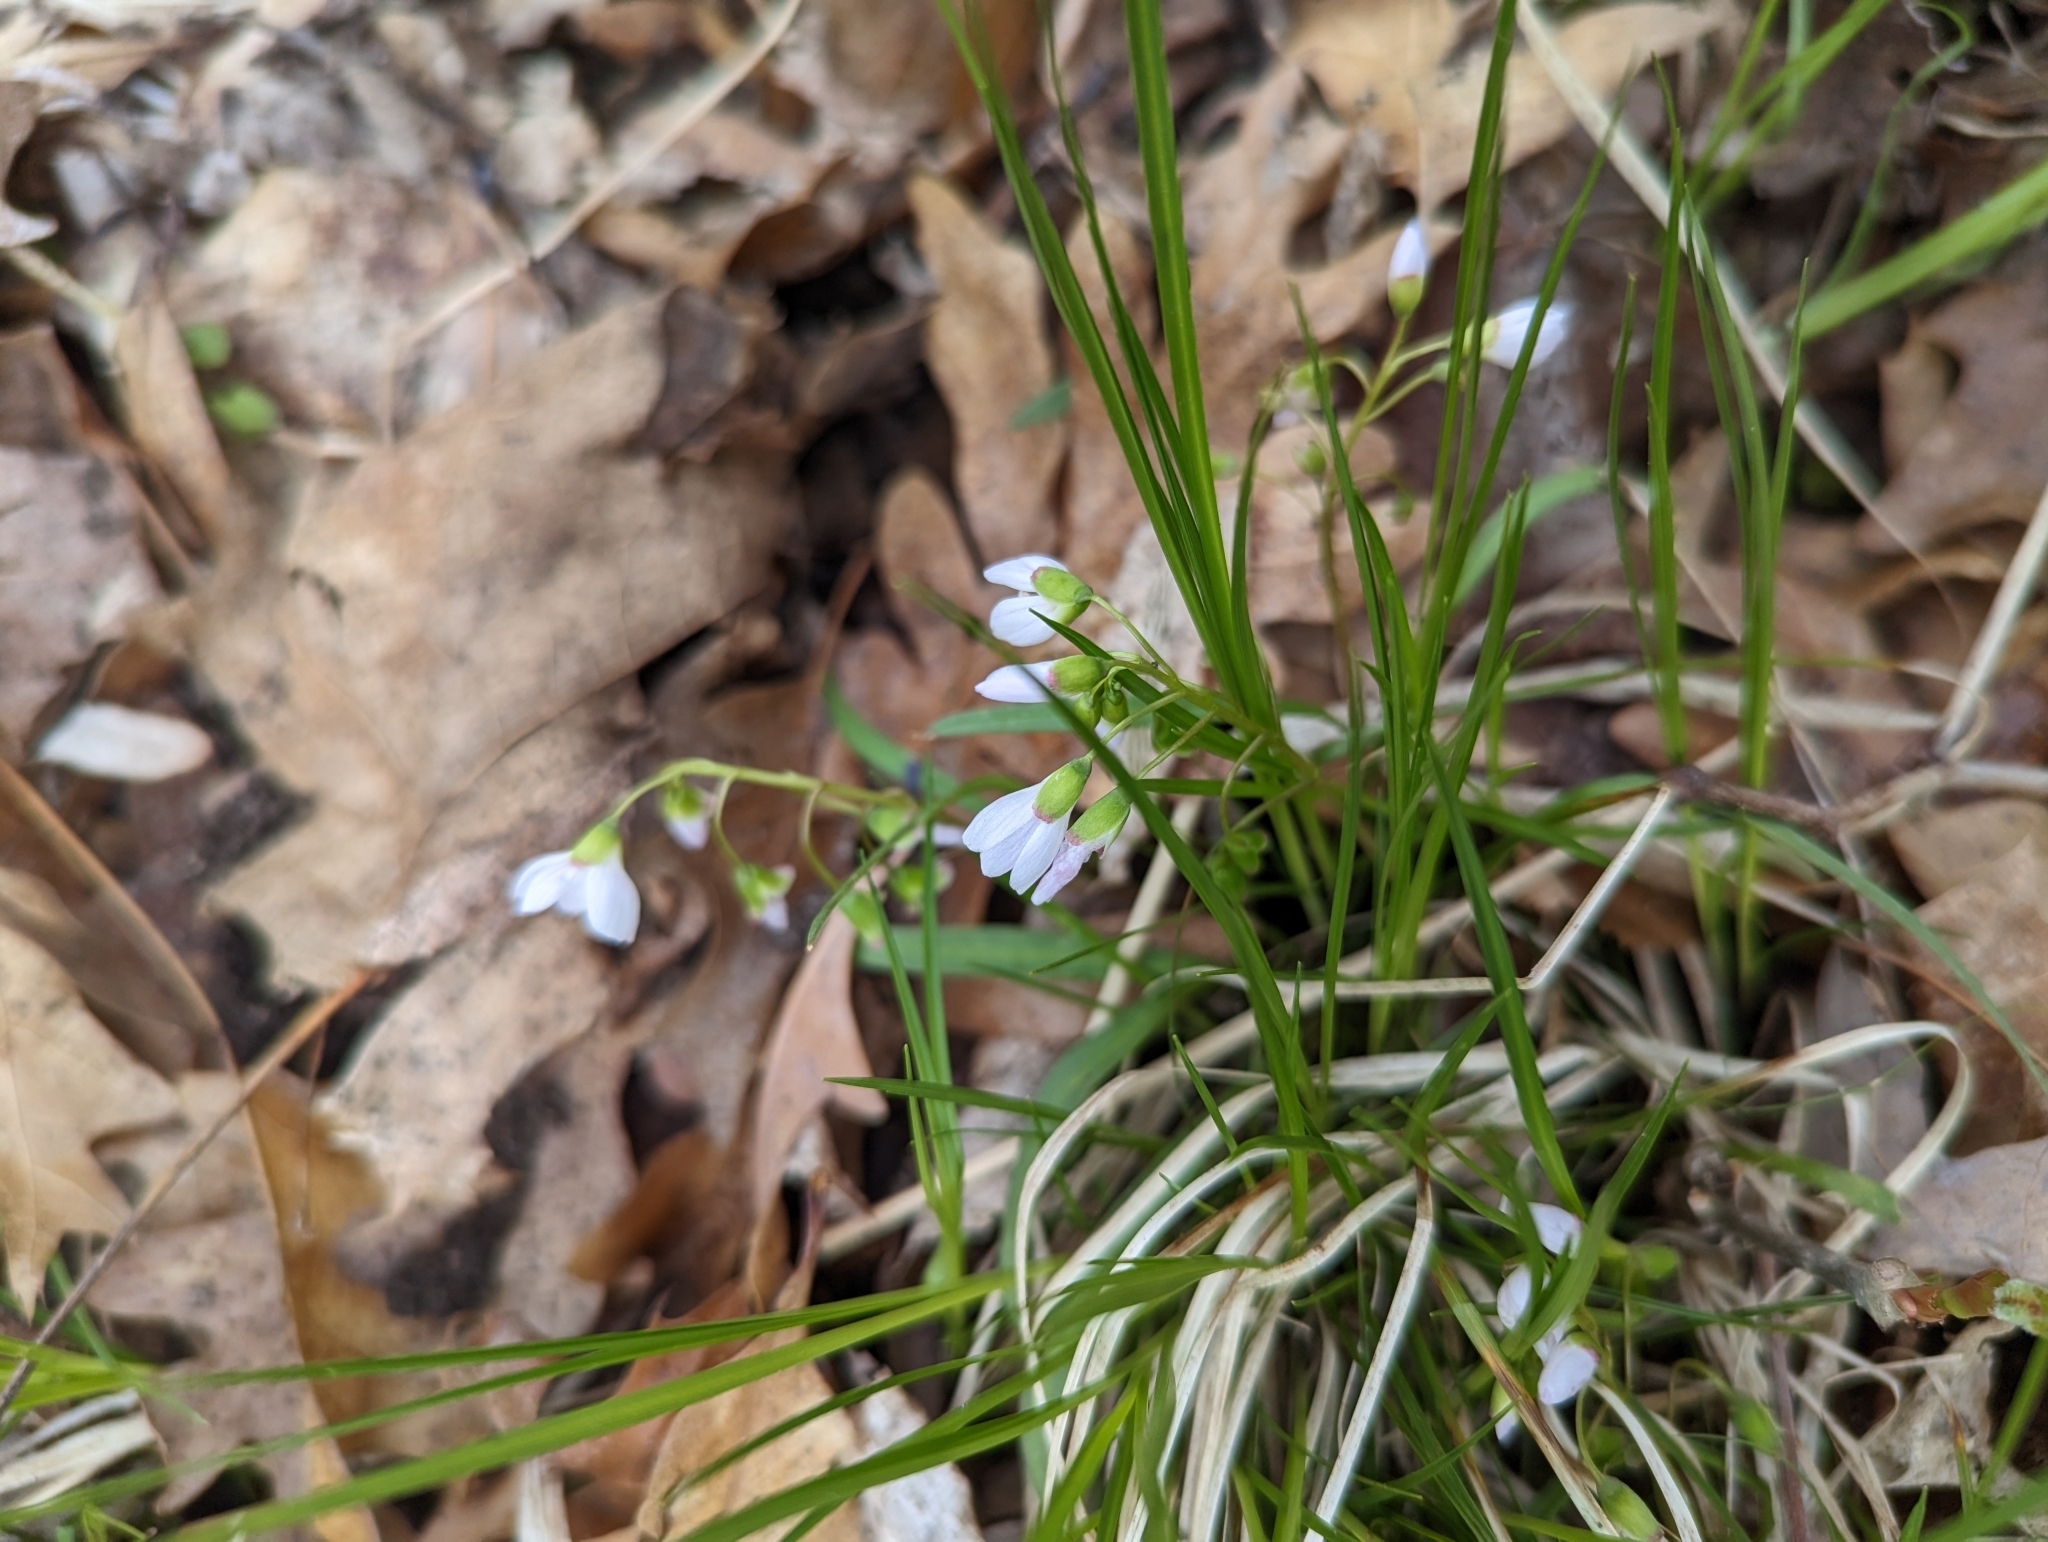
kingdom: Plantae
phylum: Tracheophyta
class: Magnoliopsida
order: Caryophyllales
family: Montiaceae
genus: Claytonia
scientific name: Claytonia virginica
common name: Virginia springbeauty
